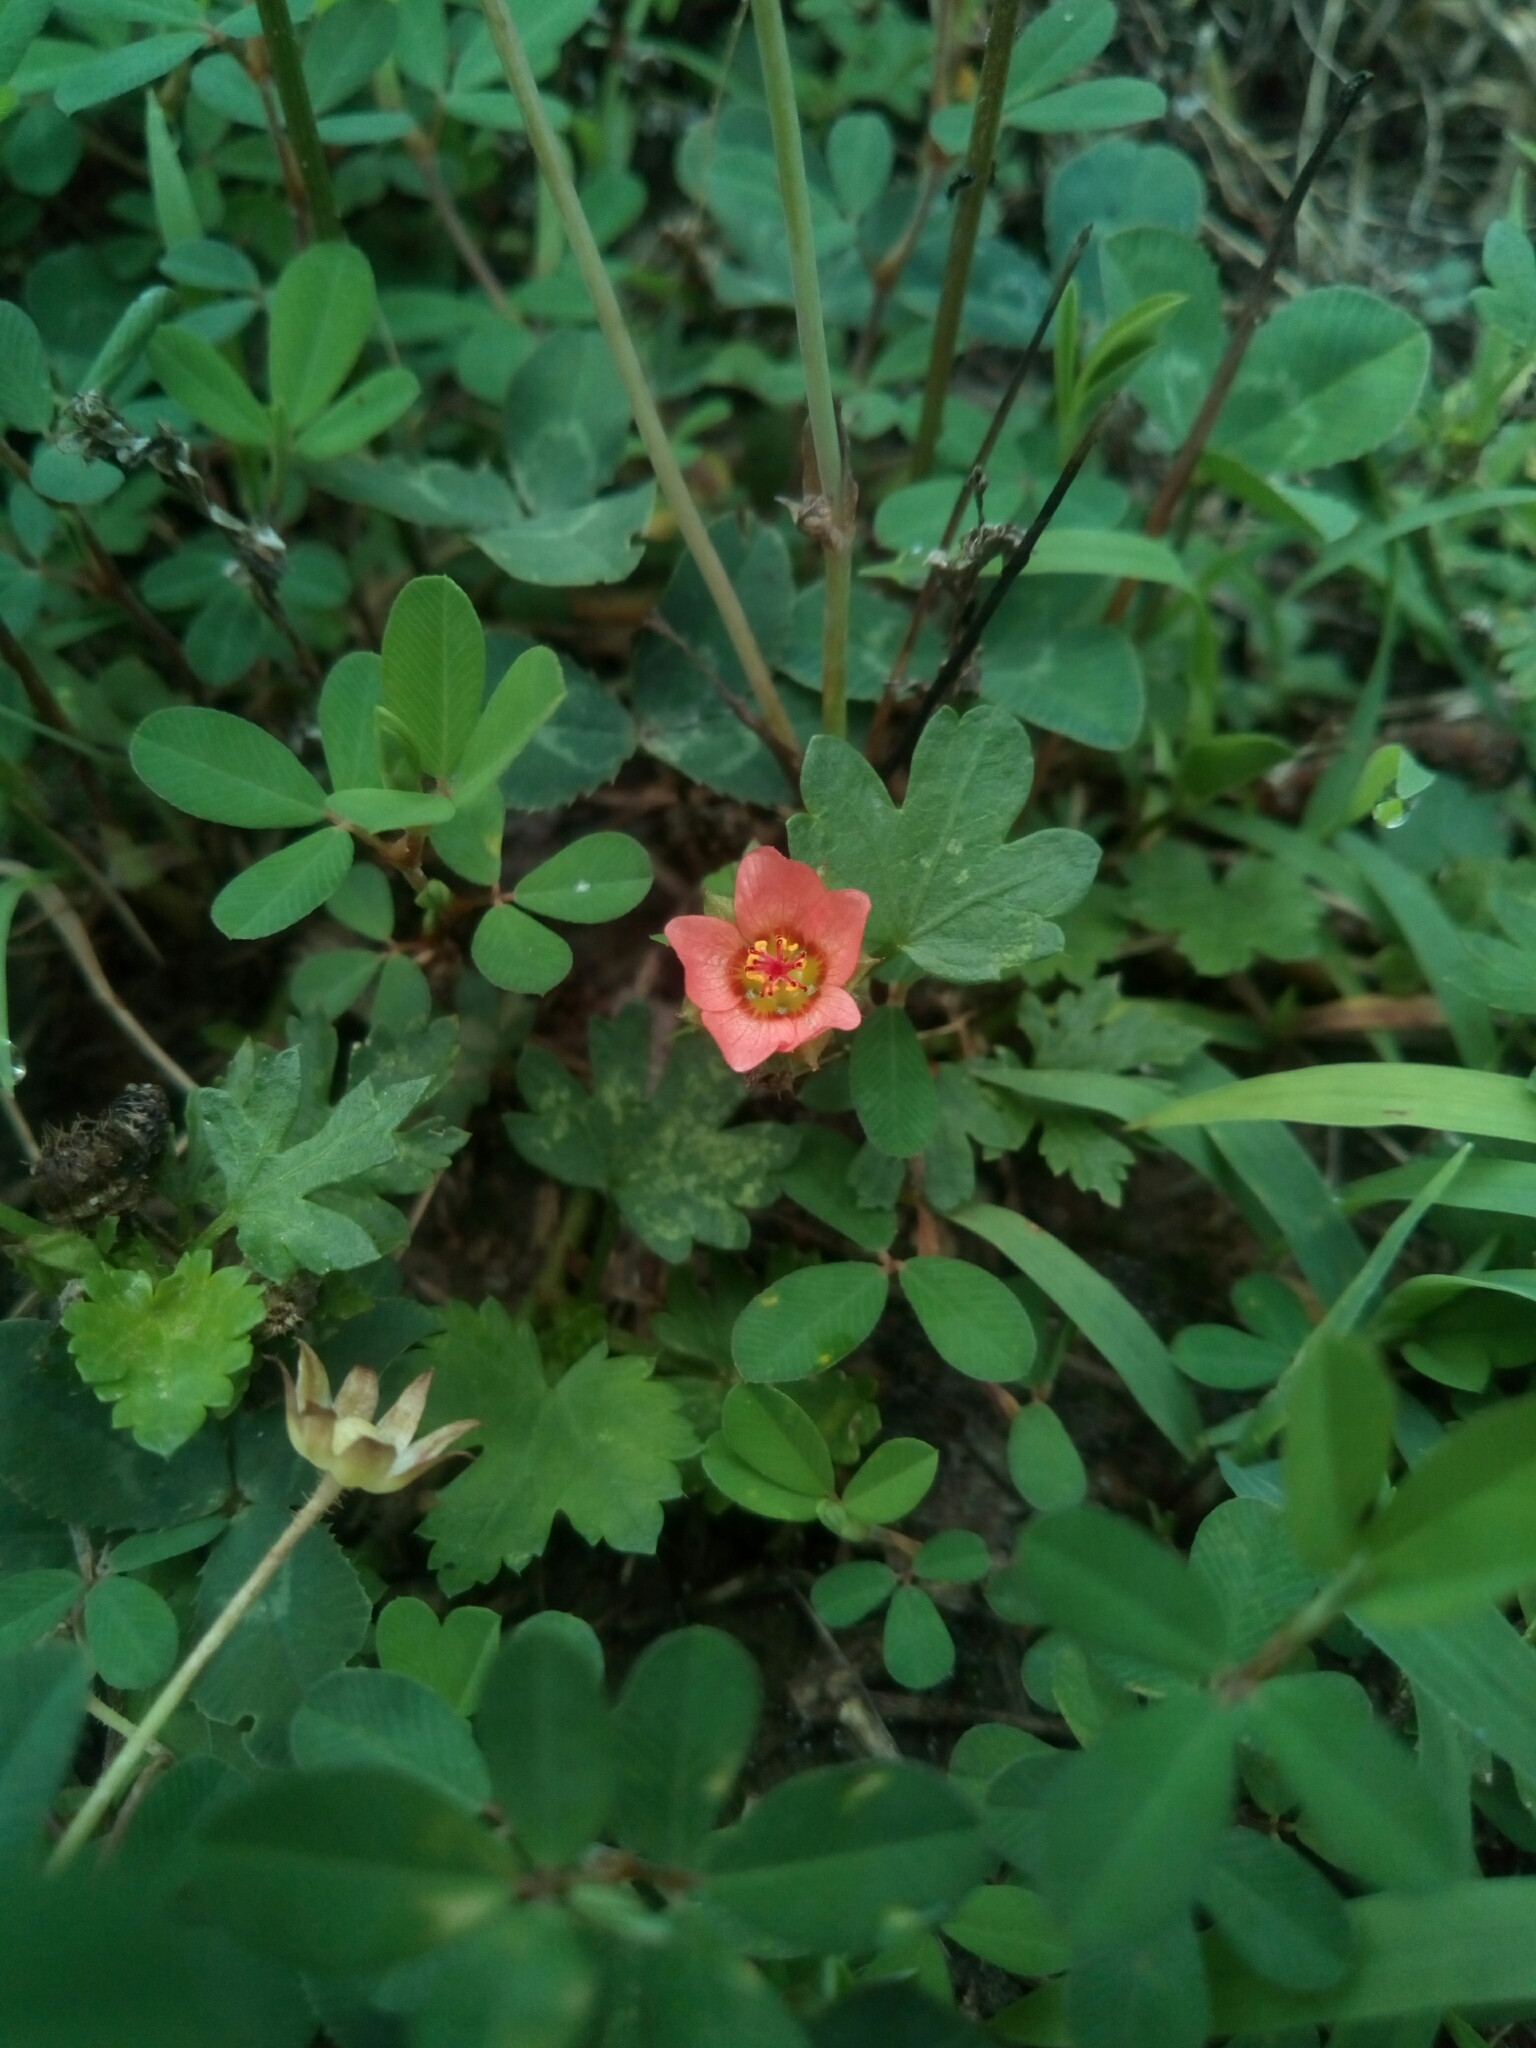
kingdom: Plantae
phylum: Tracheophyta
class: Magnoliopsida
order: Malvales
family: Malvaceae
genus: Modiola
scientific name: Modiola caroliniana
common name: Carolina bristlemallow
